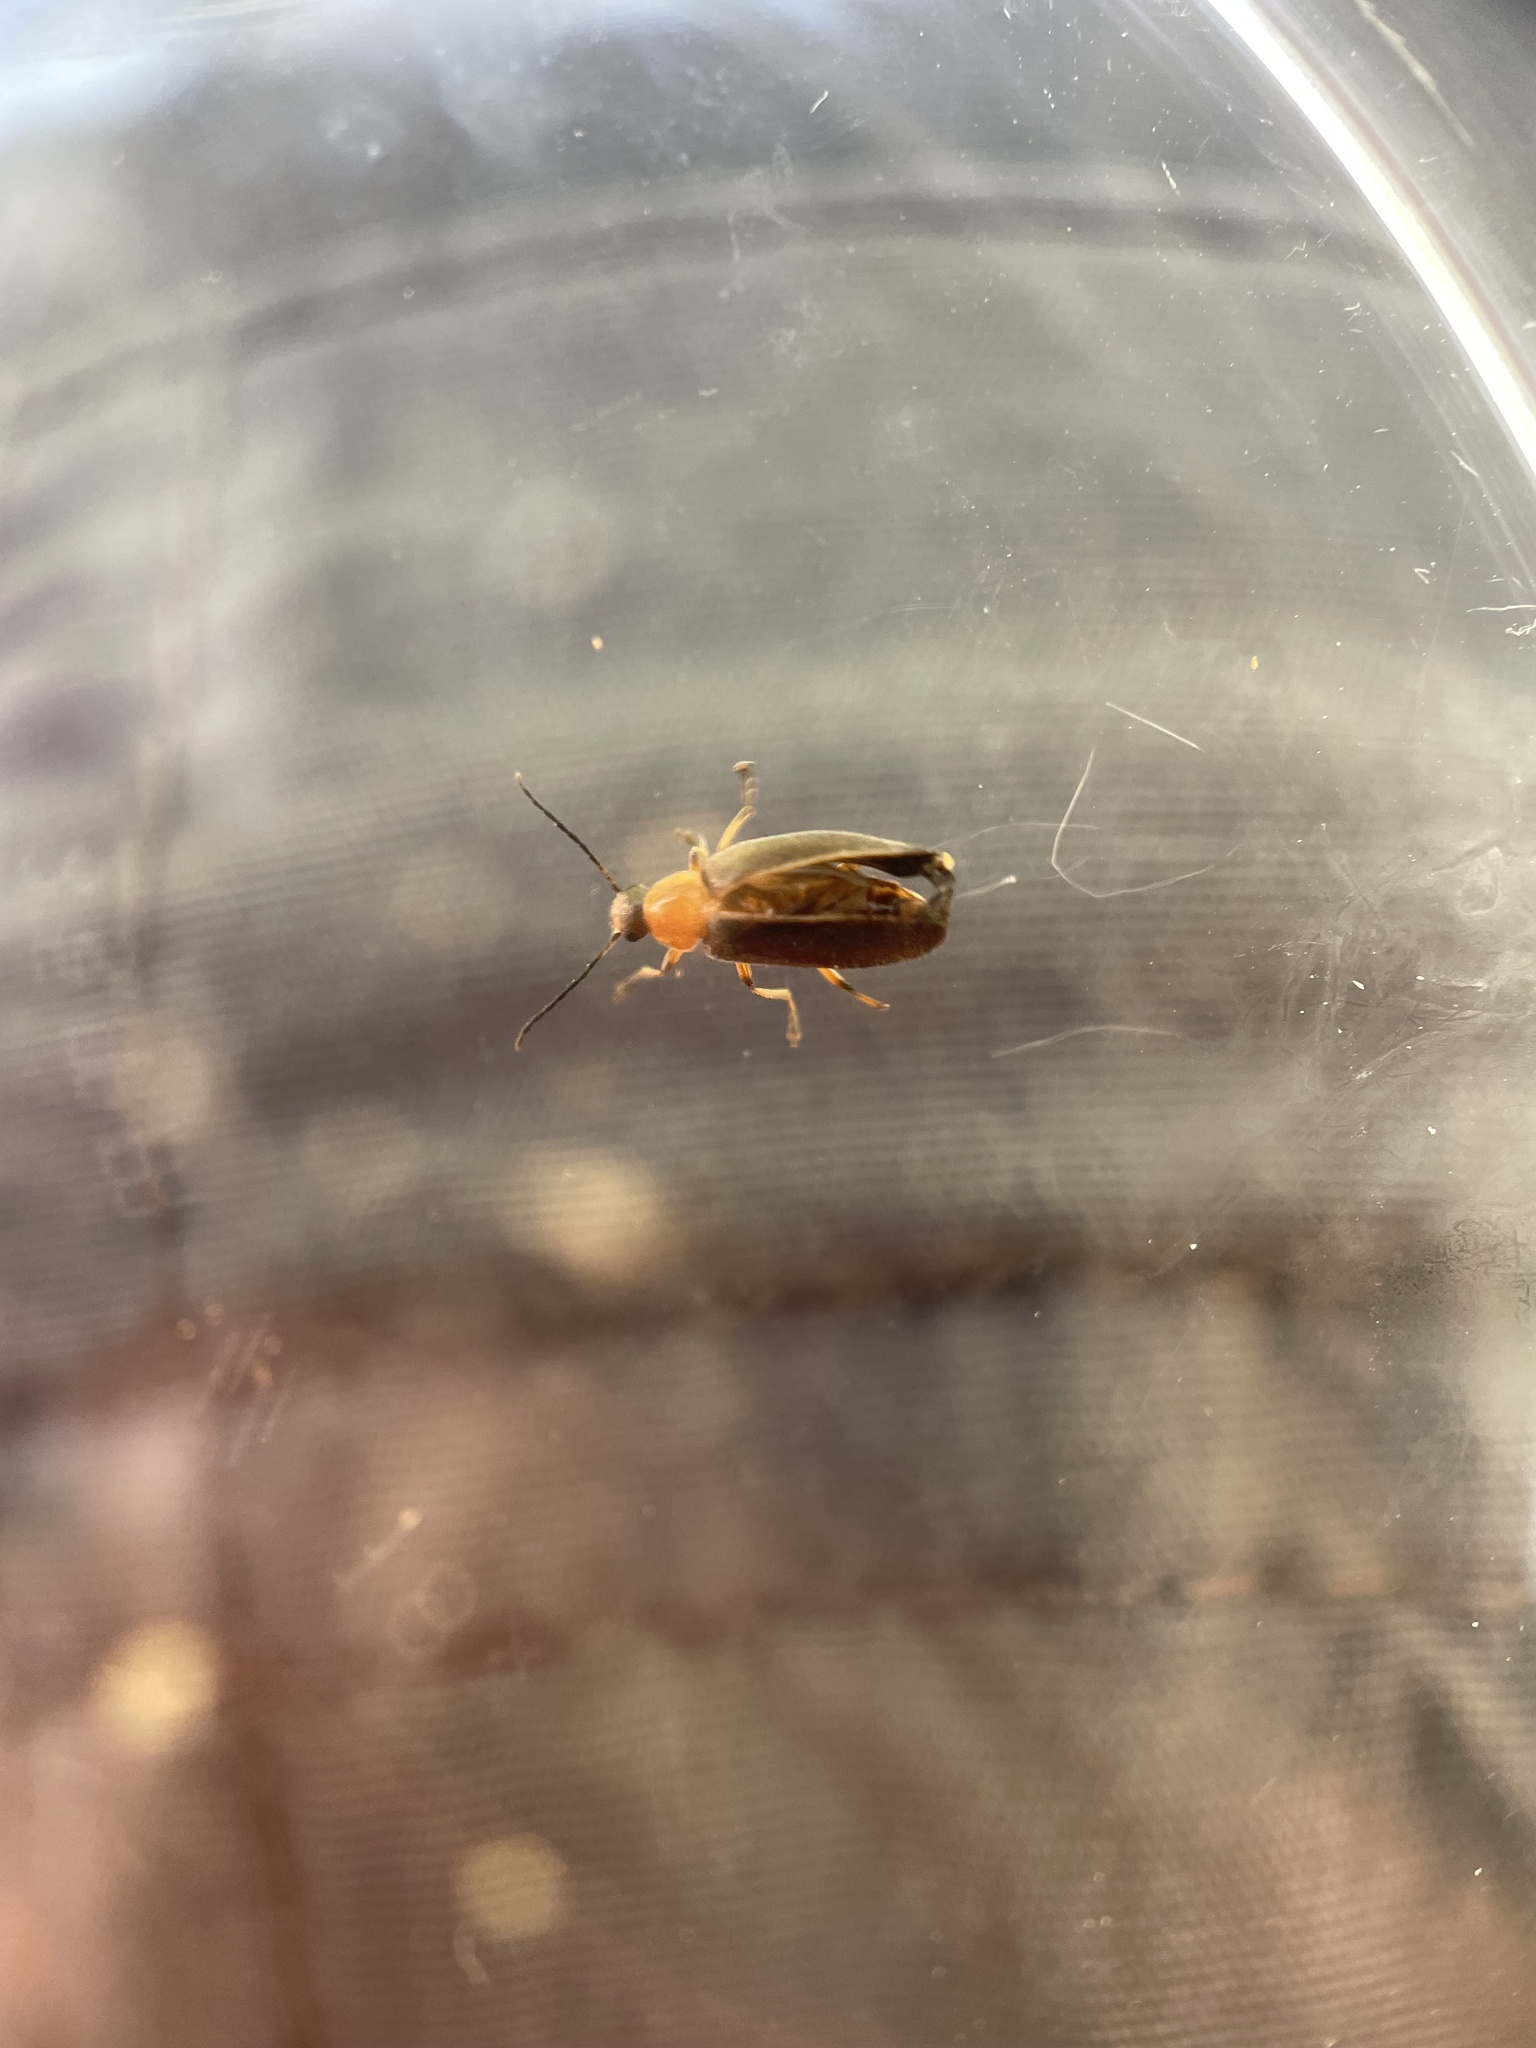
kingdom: Animalia
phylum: Arthropoda
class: Insecta
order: Coleoptera
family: Melandryidae
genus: Osphya
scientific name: Osphya varians
